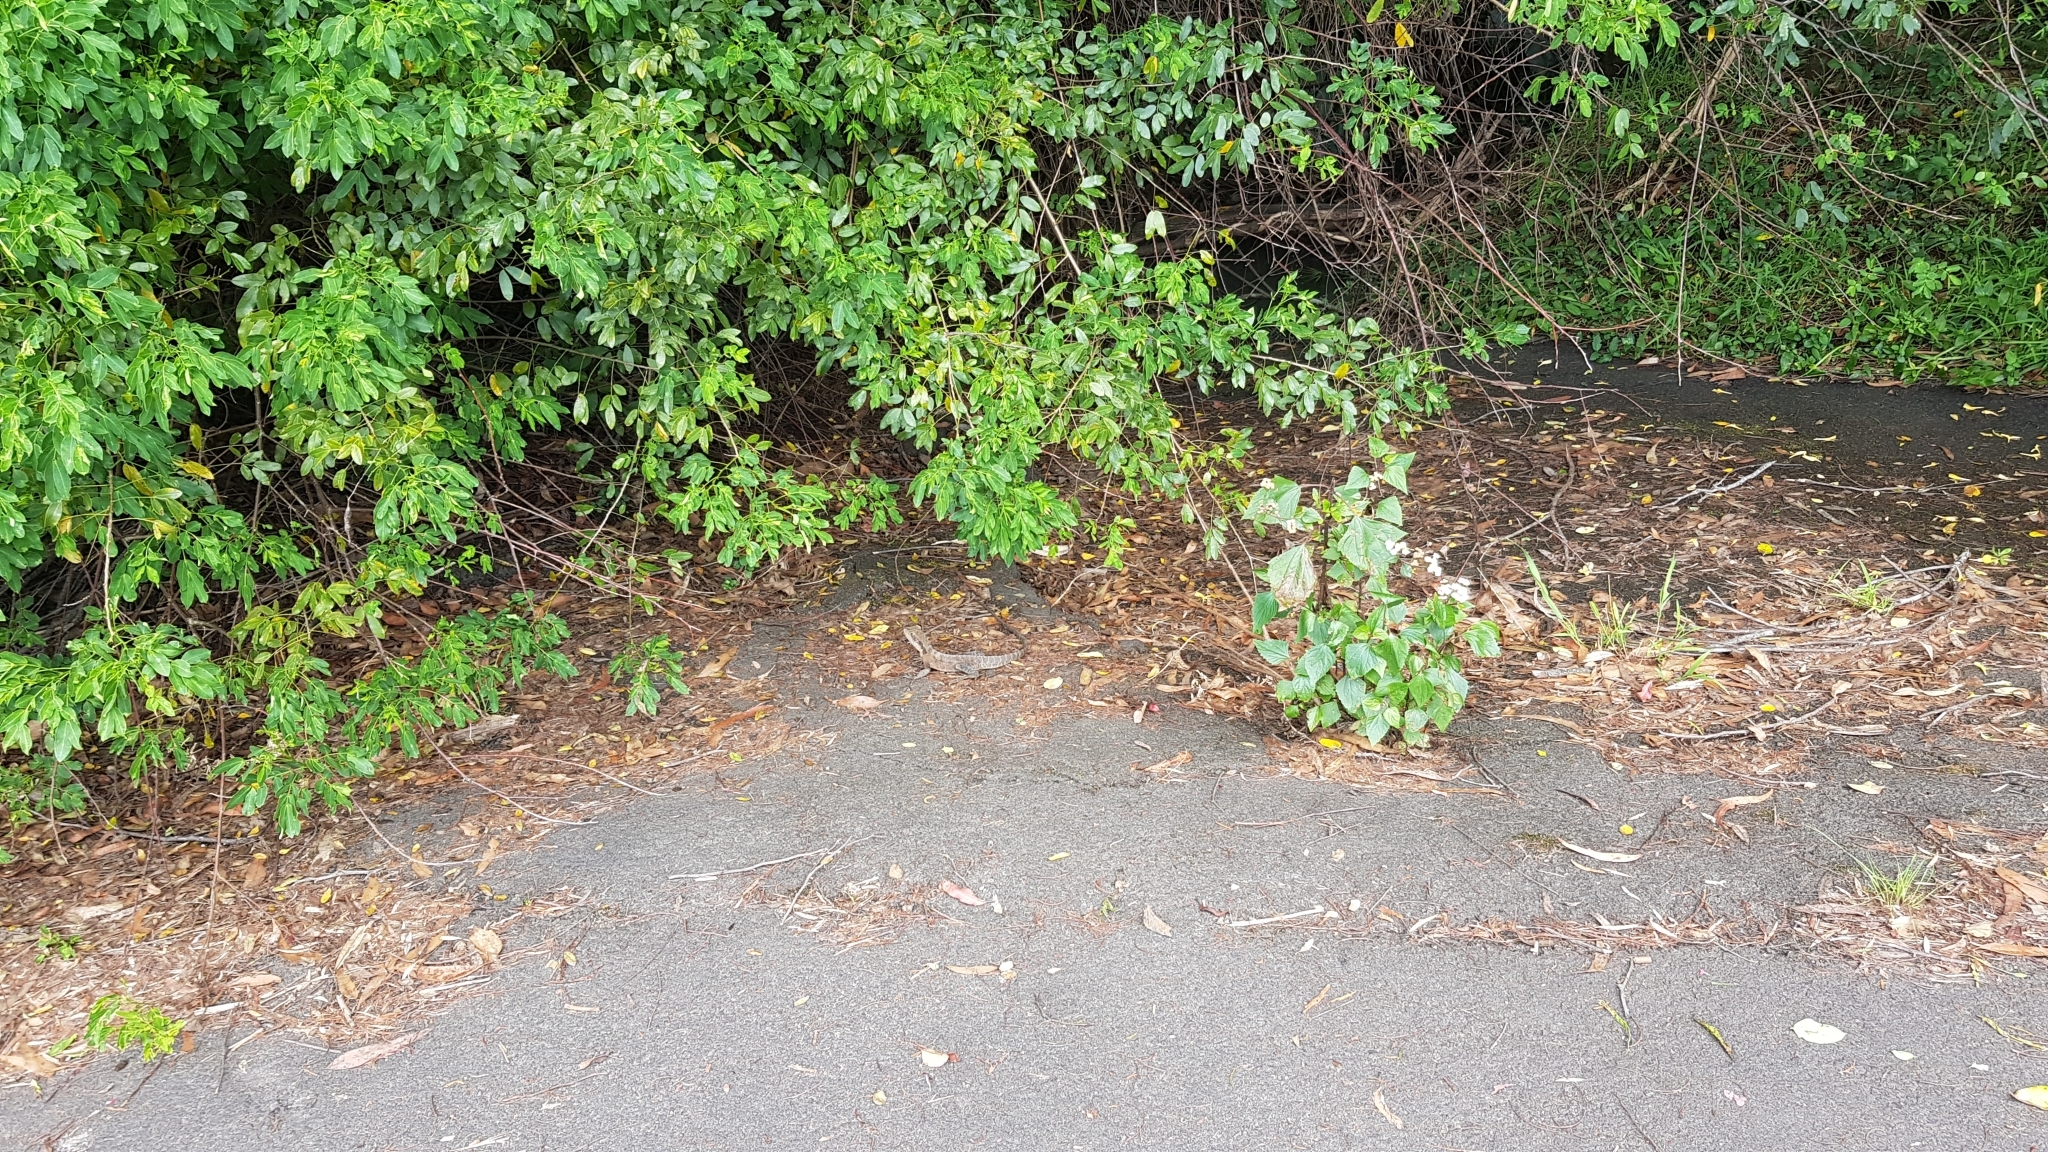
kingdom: Animalia
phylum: Chordata
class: Squamata
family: Agamidae
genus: Intellagama
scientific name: Intellagama lesueurii
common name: Eastern water dragon
